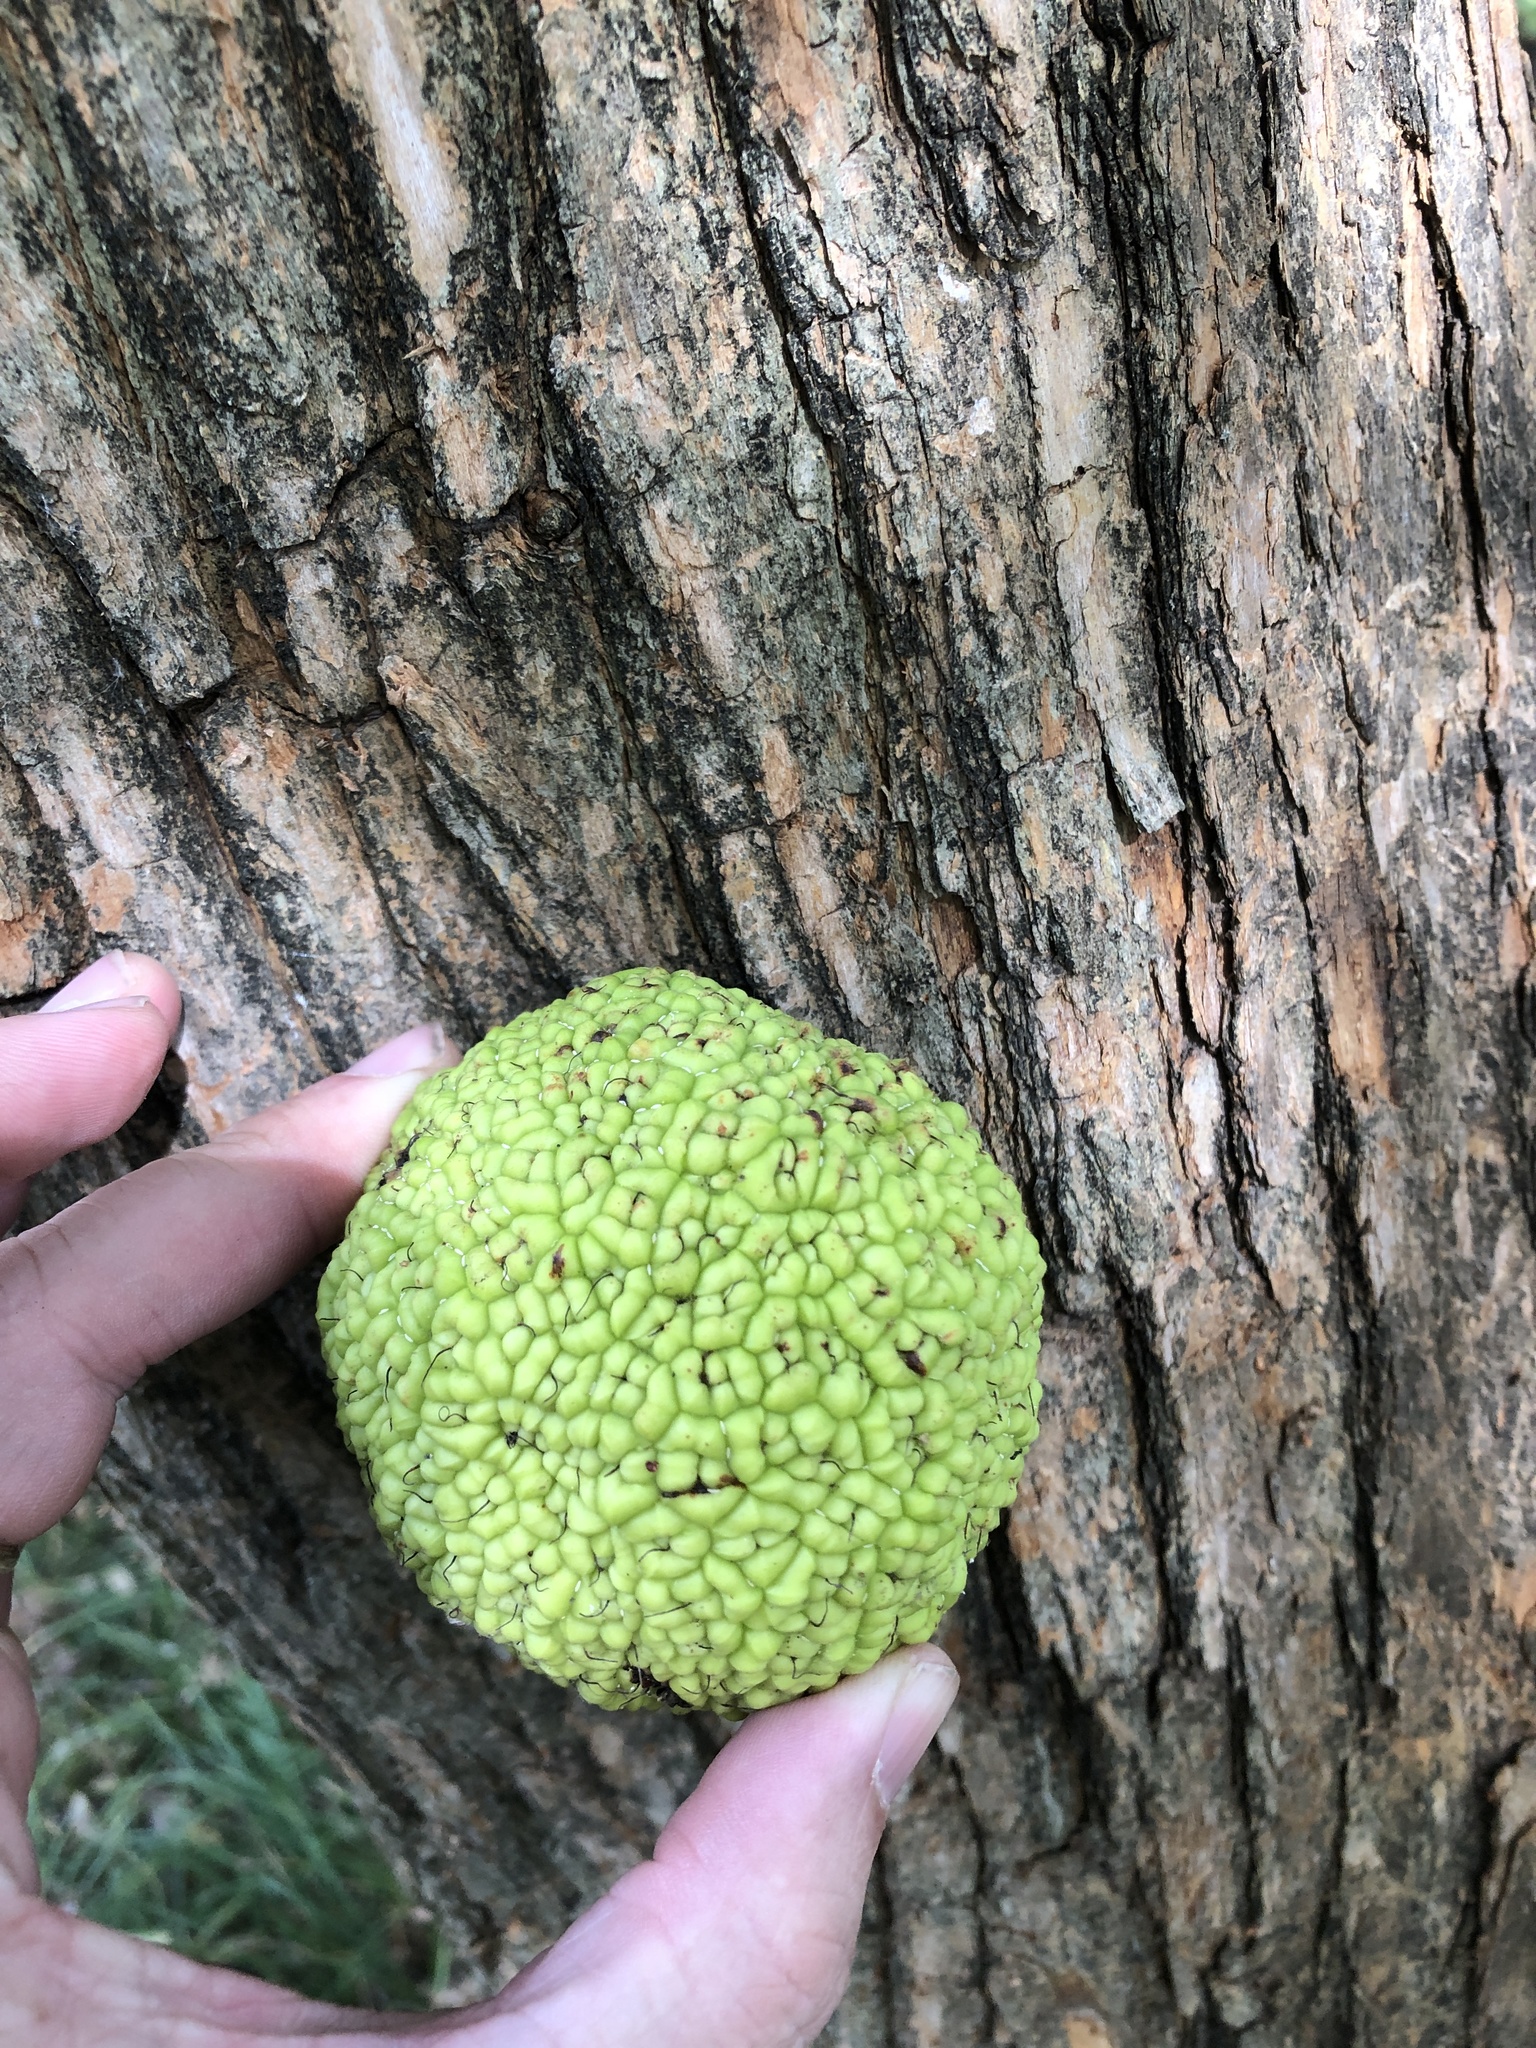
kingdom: Plantae
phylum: Tracheophyta
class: Magnoliopsida
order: Rosales
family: Moraceae
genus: Maclura
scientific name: Maclura pomifera
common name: Osage-orange
